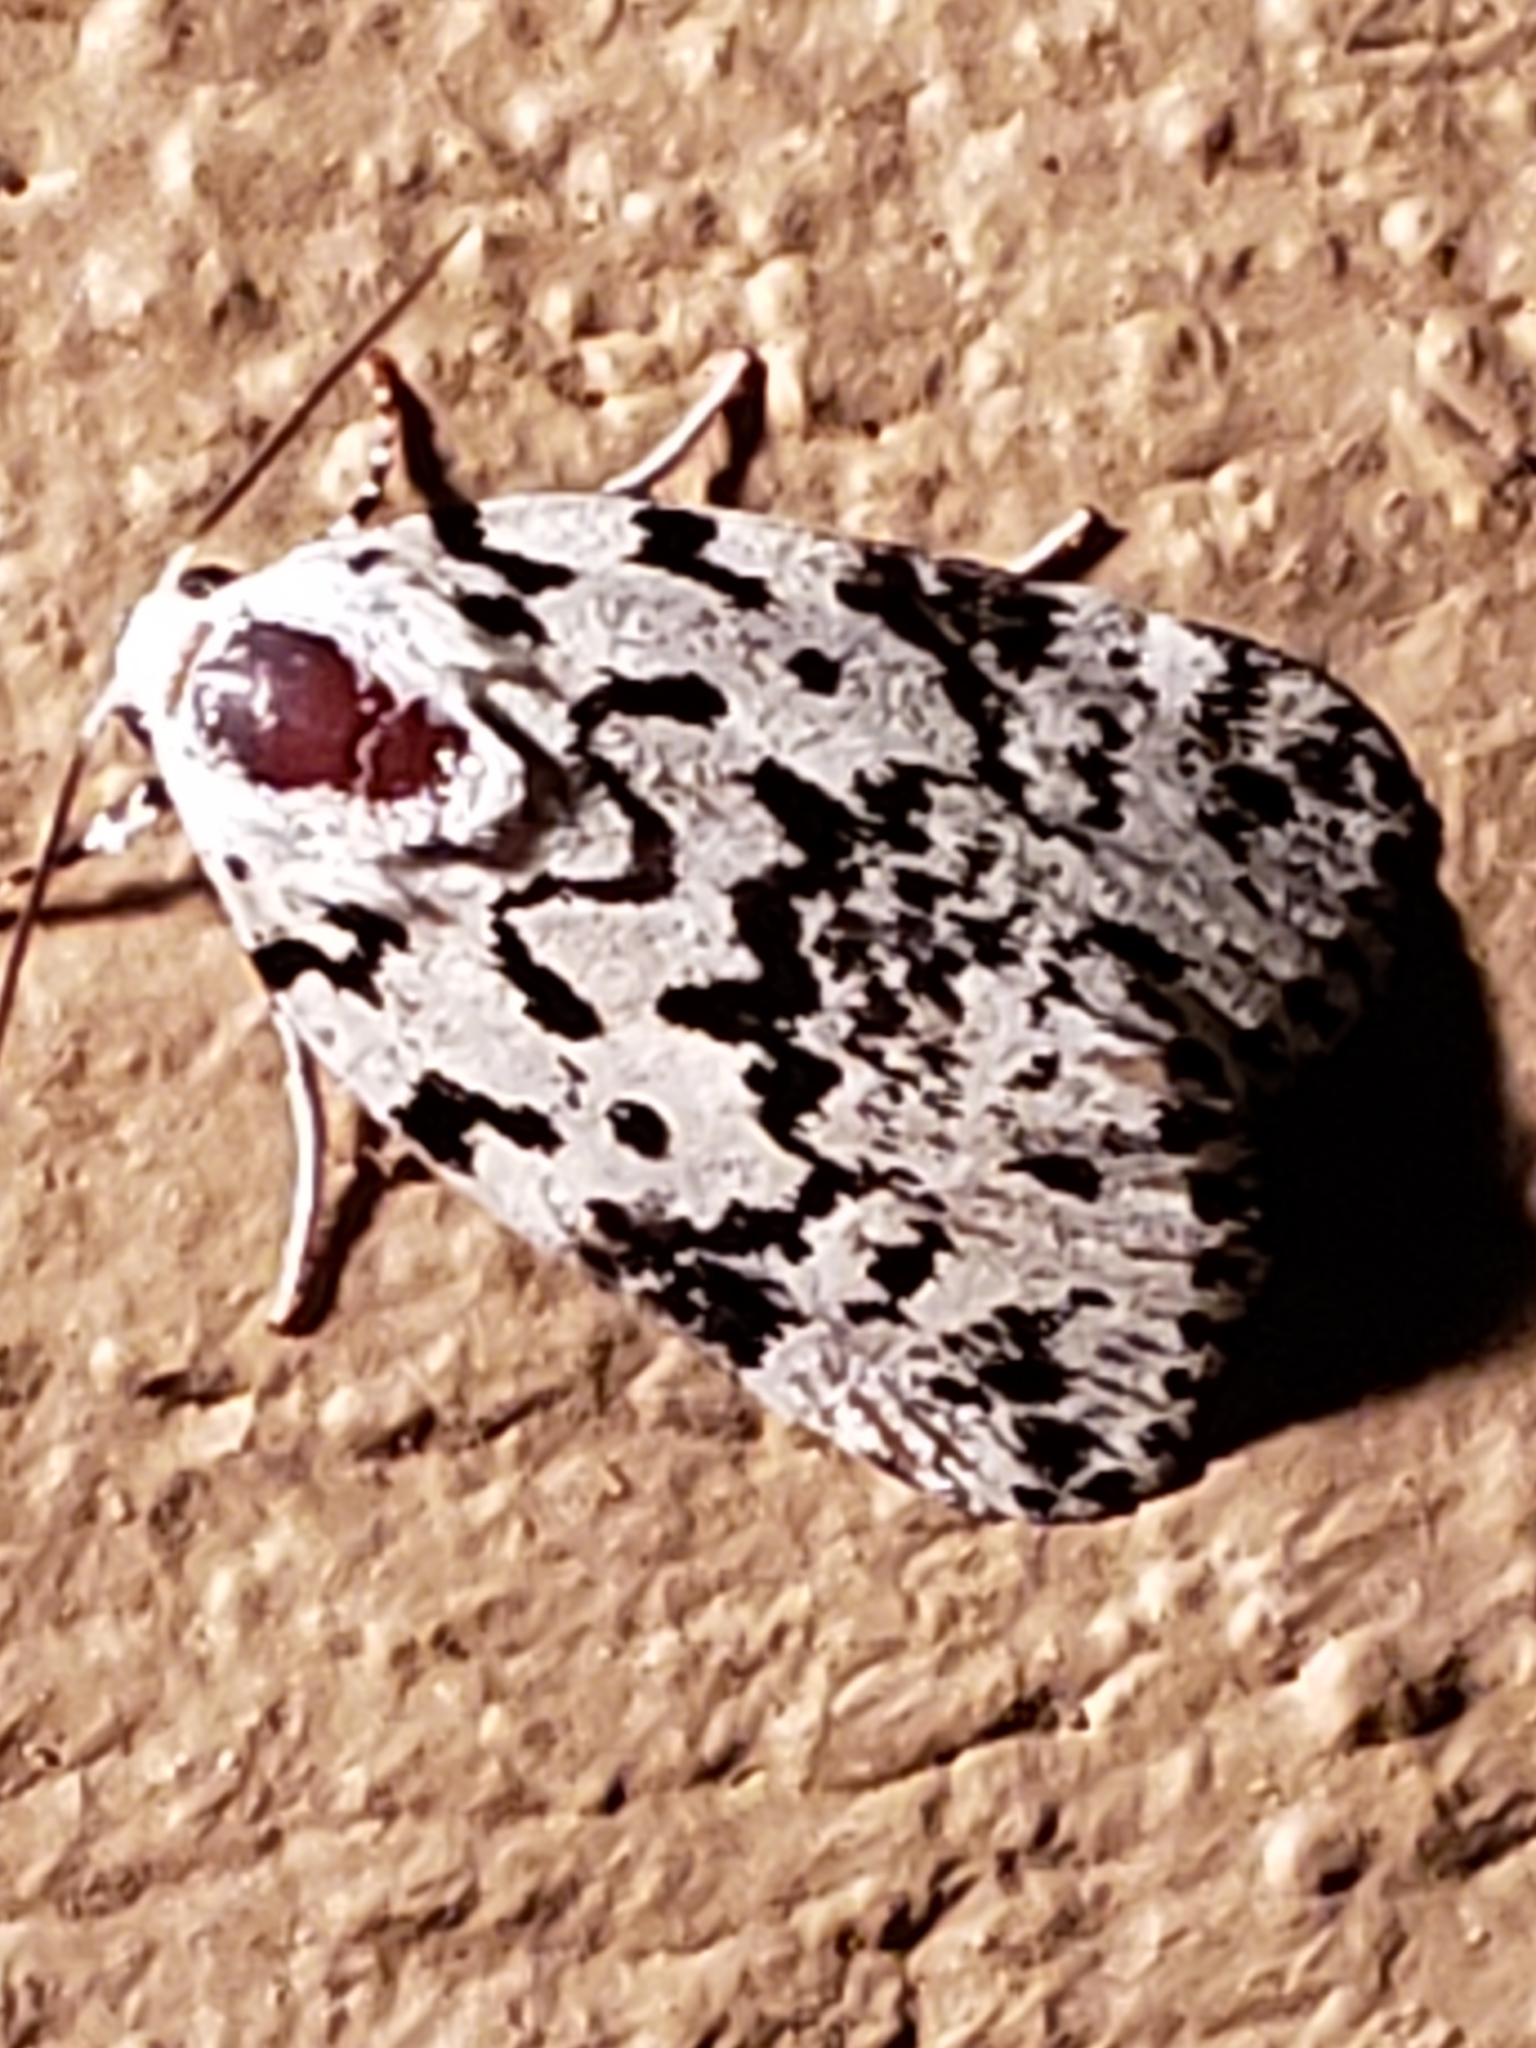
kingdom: Animalia
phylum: Arthropoda
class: Insecta
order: Lepidoptera
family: Noctuidae
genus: Polygrammate
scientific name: Polygrammate hebraeicum
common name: Hebrew moth
